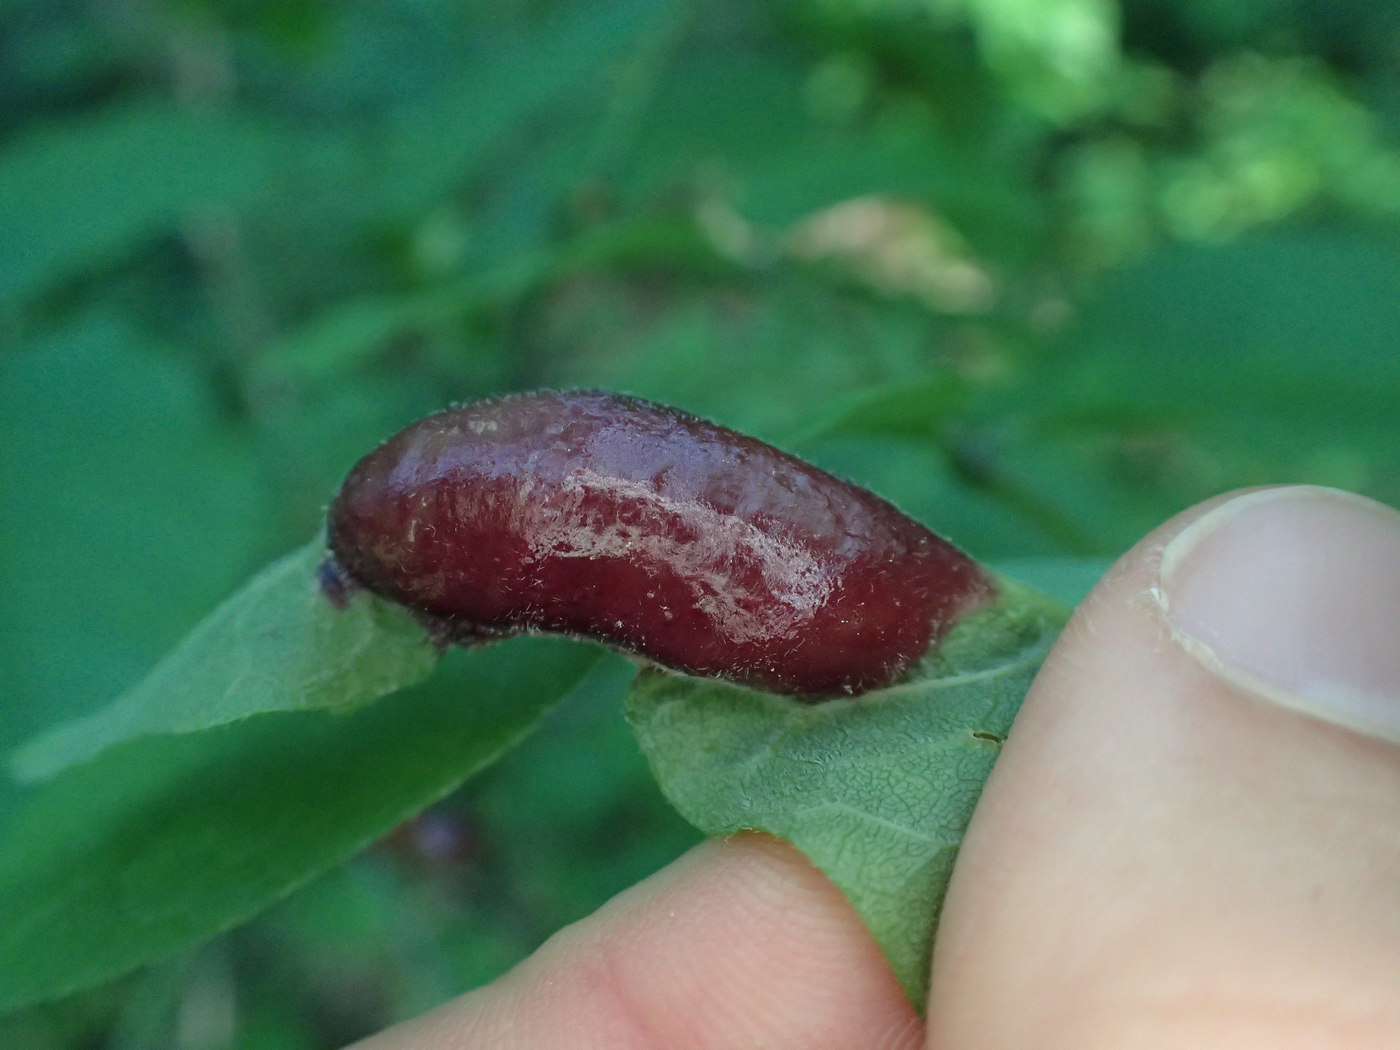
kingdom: Animalia
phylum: Arthropoda
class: Insecta
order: Diptera
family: Cecidomyiidae
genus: Dasineura
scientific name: Dasineura tumidosae
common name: Ash petiole gall midge
